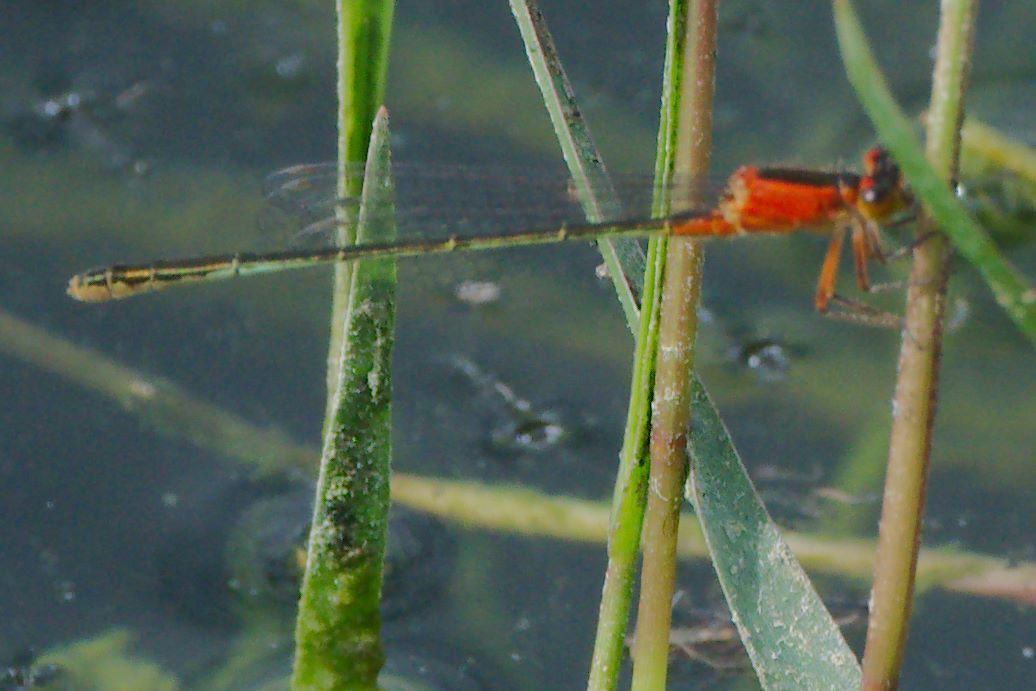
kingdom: Animalia
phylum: Arthropoda
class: Insecta
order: Odonata
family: Coenagrionidae
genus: Ischnura
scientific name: Ischnura ramburii
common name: Rambur's forktail
